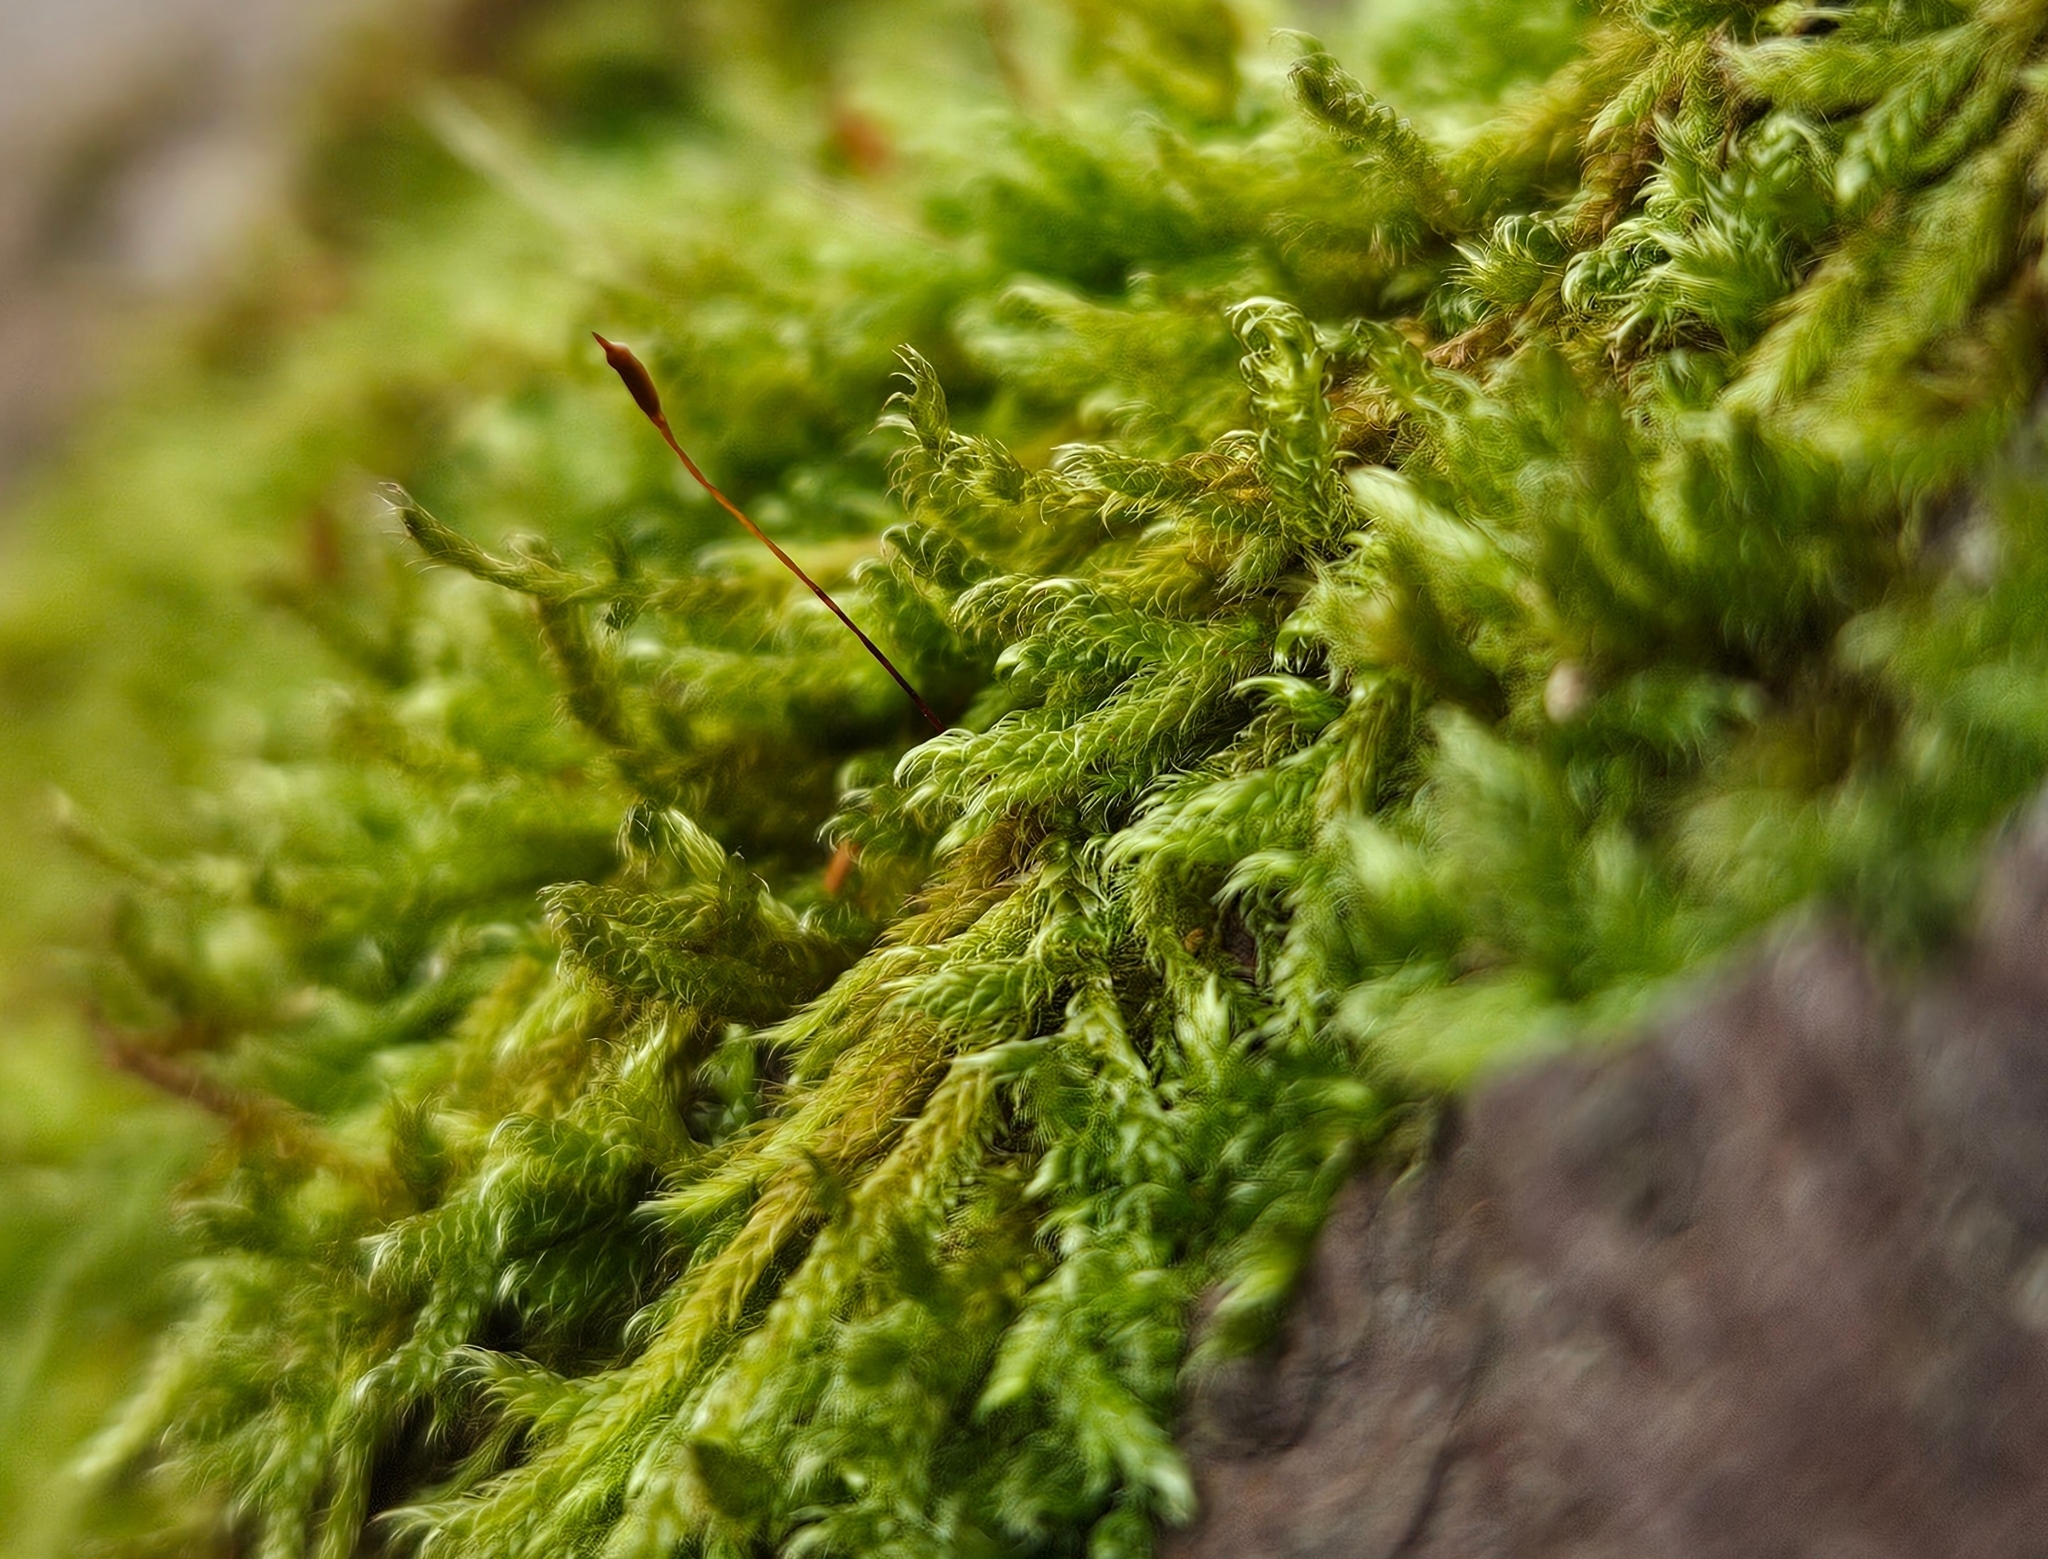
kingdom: Plantae
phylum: Bryophyta
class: Bryopsida
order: Hypnales
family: Hypnaceae
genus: Hypnum
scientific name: Hypnum cupressiforme
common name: Cypress-leaved plait-moss
